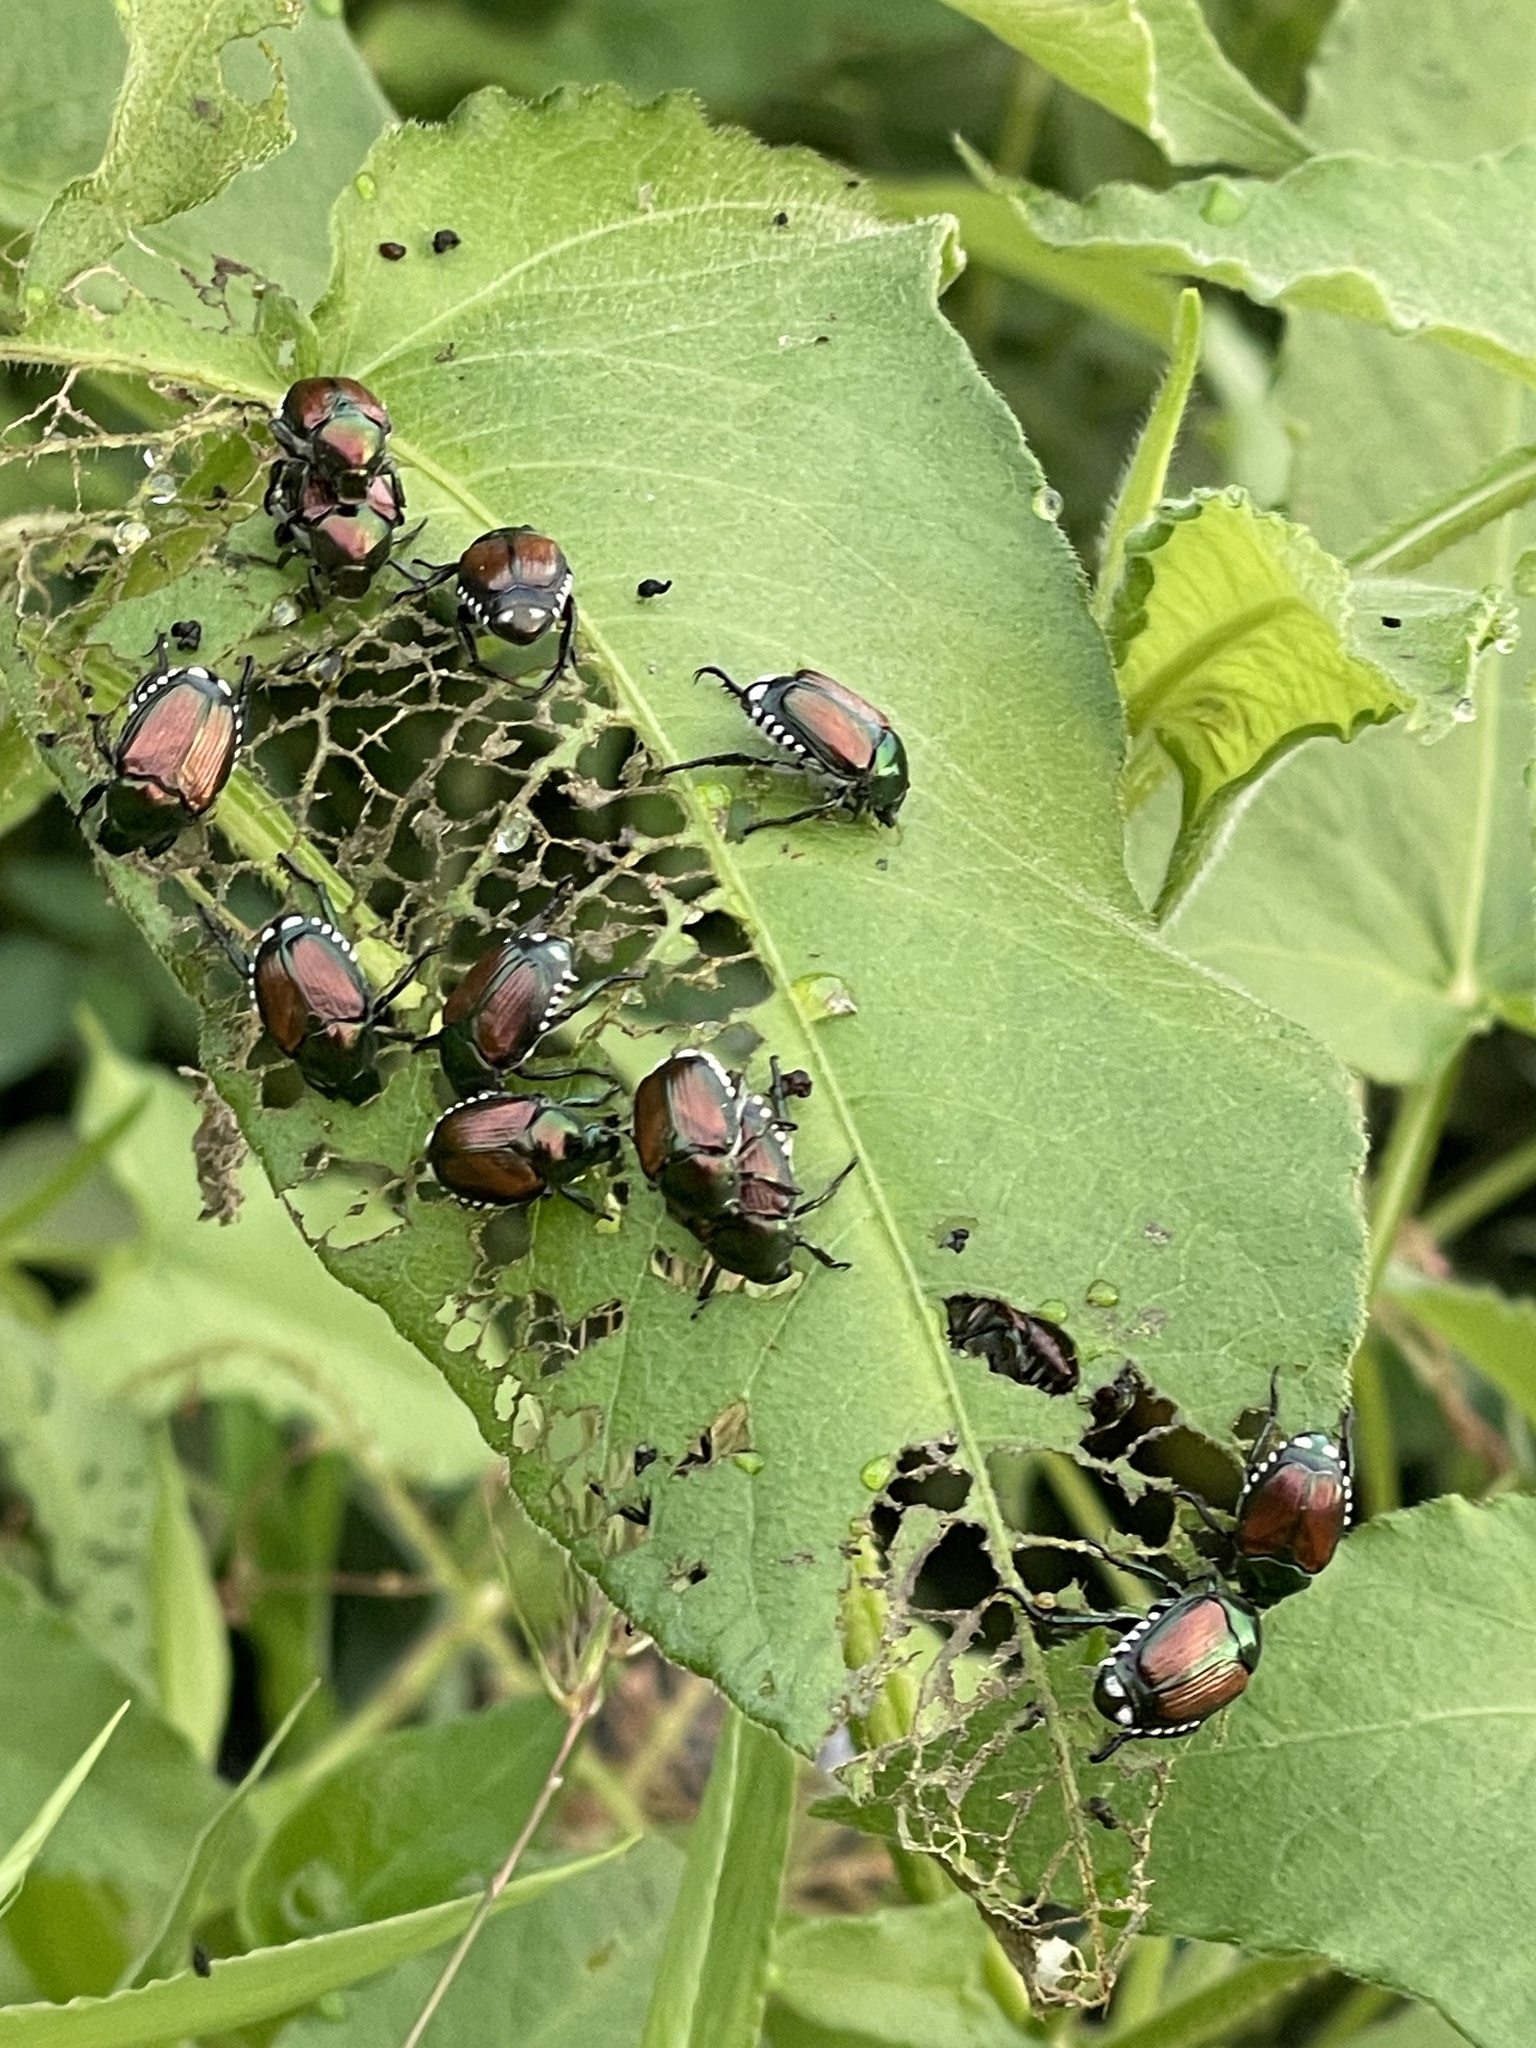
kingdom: Animalia
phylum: Arthropoda
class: Insecta
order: Coleoptera
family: Scarabaeidae
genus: Popillia
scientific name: Popillia japonica
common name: Japanese beetle
